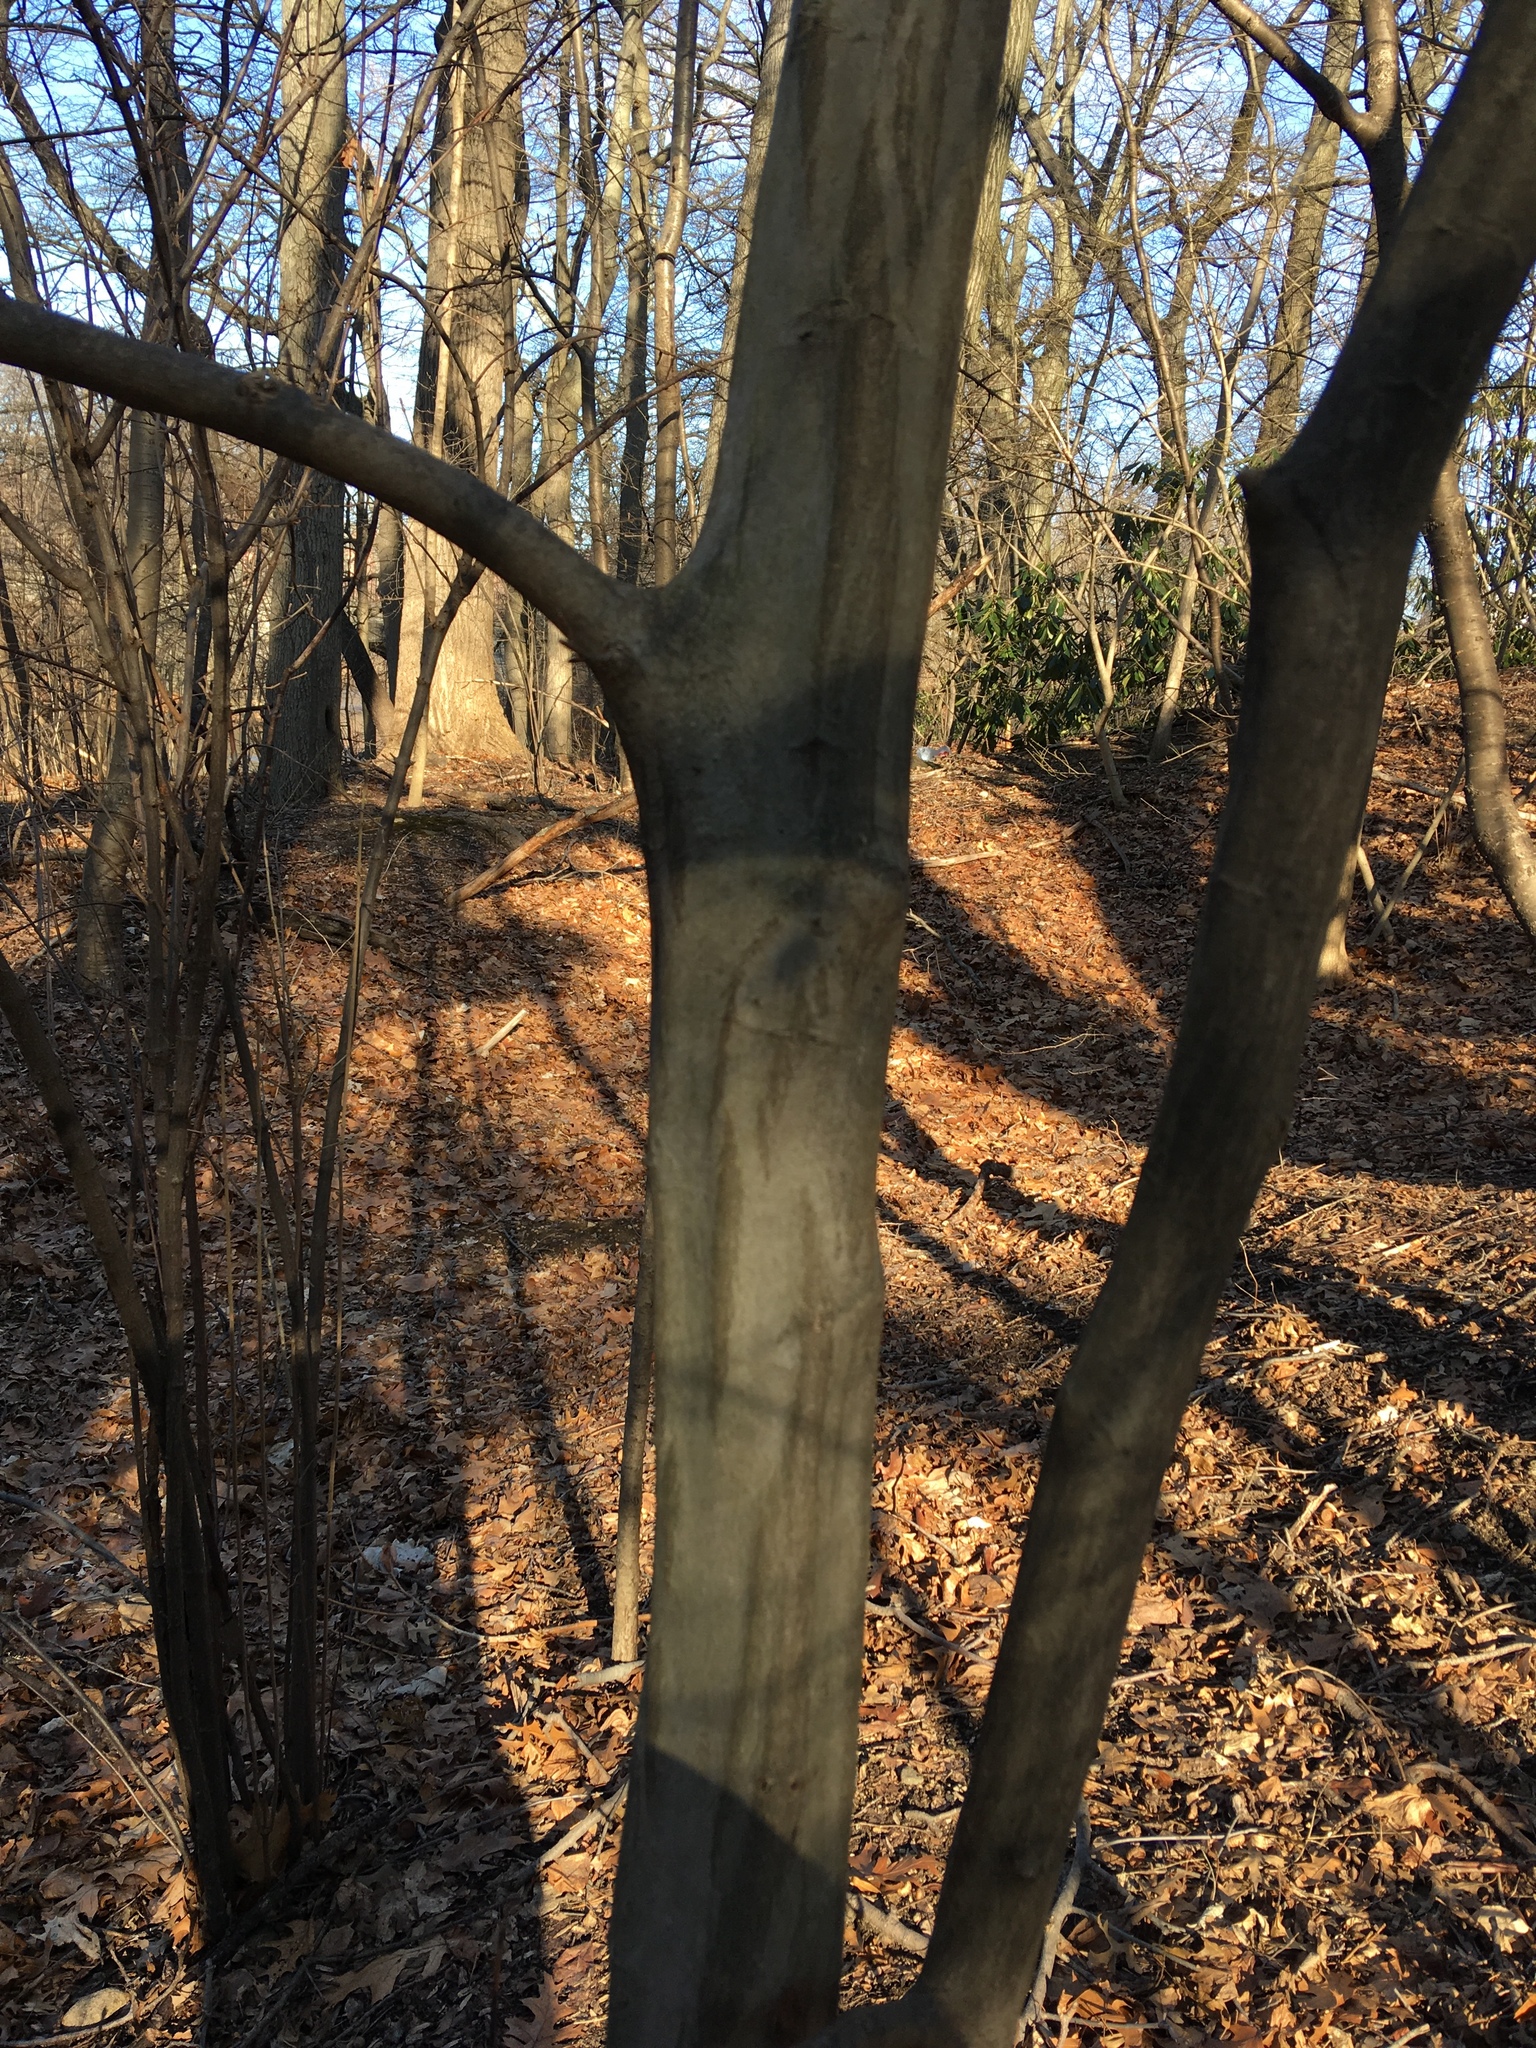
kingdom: Plantae
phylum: Tracheophyta
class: Magnoliopsida
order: Fagales
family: Betulaceae
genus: Carpinus
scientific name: Carpinus caroliniana
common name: American hornbeam
